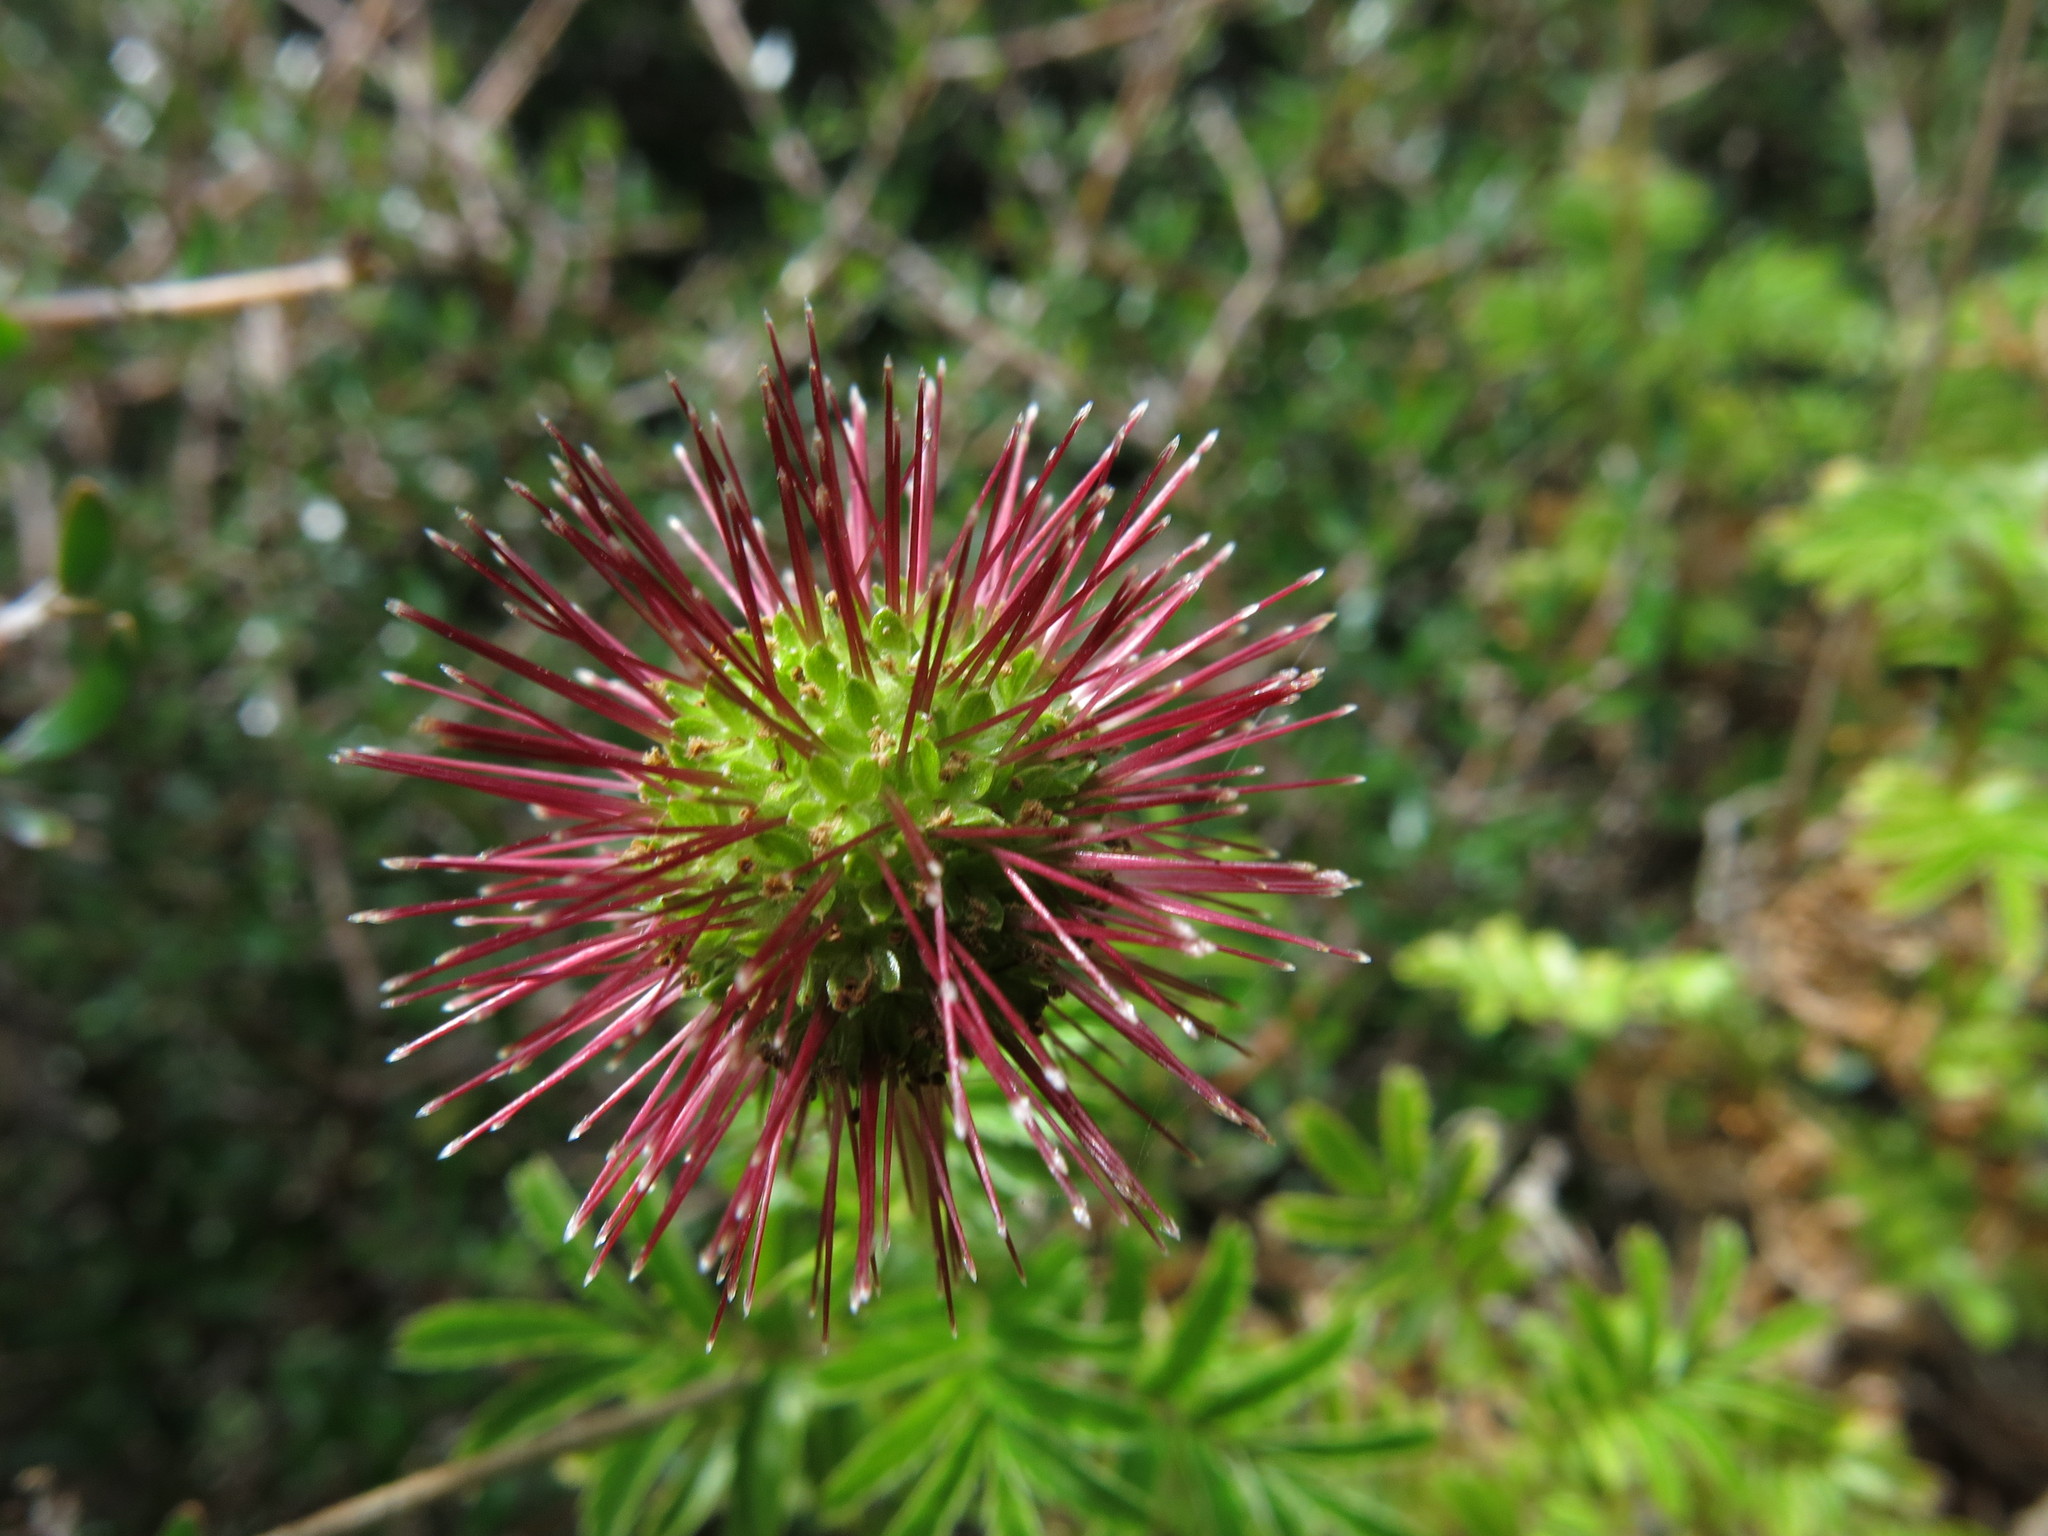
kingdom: Plantae
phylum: Tracheophyta
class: Magnoliopsida
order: Rosales
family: Rosaceae
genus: Acaena
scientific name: Acaena novae-zelandiae
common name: Pirri-pirri-bur
